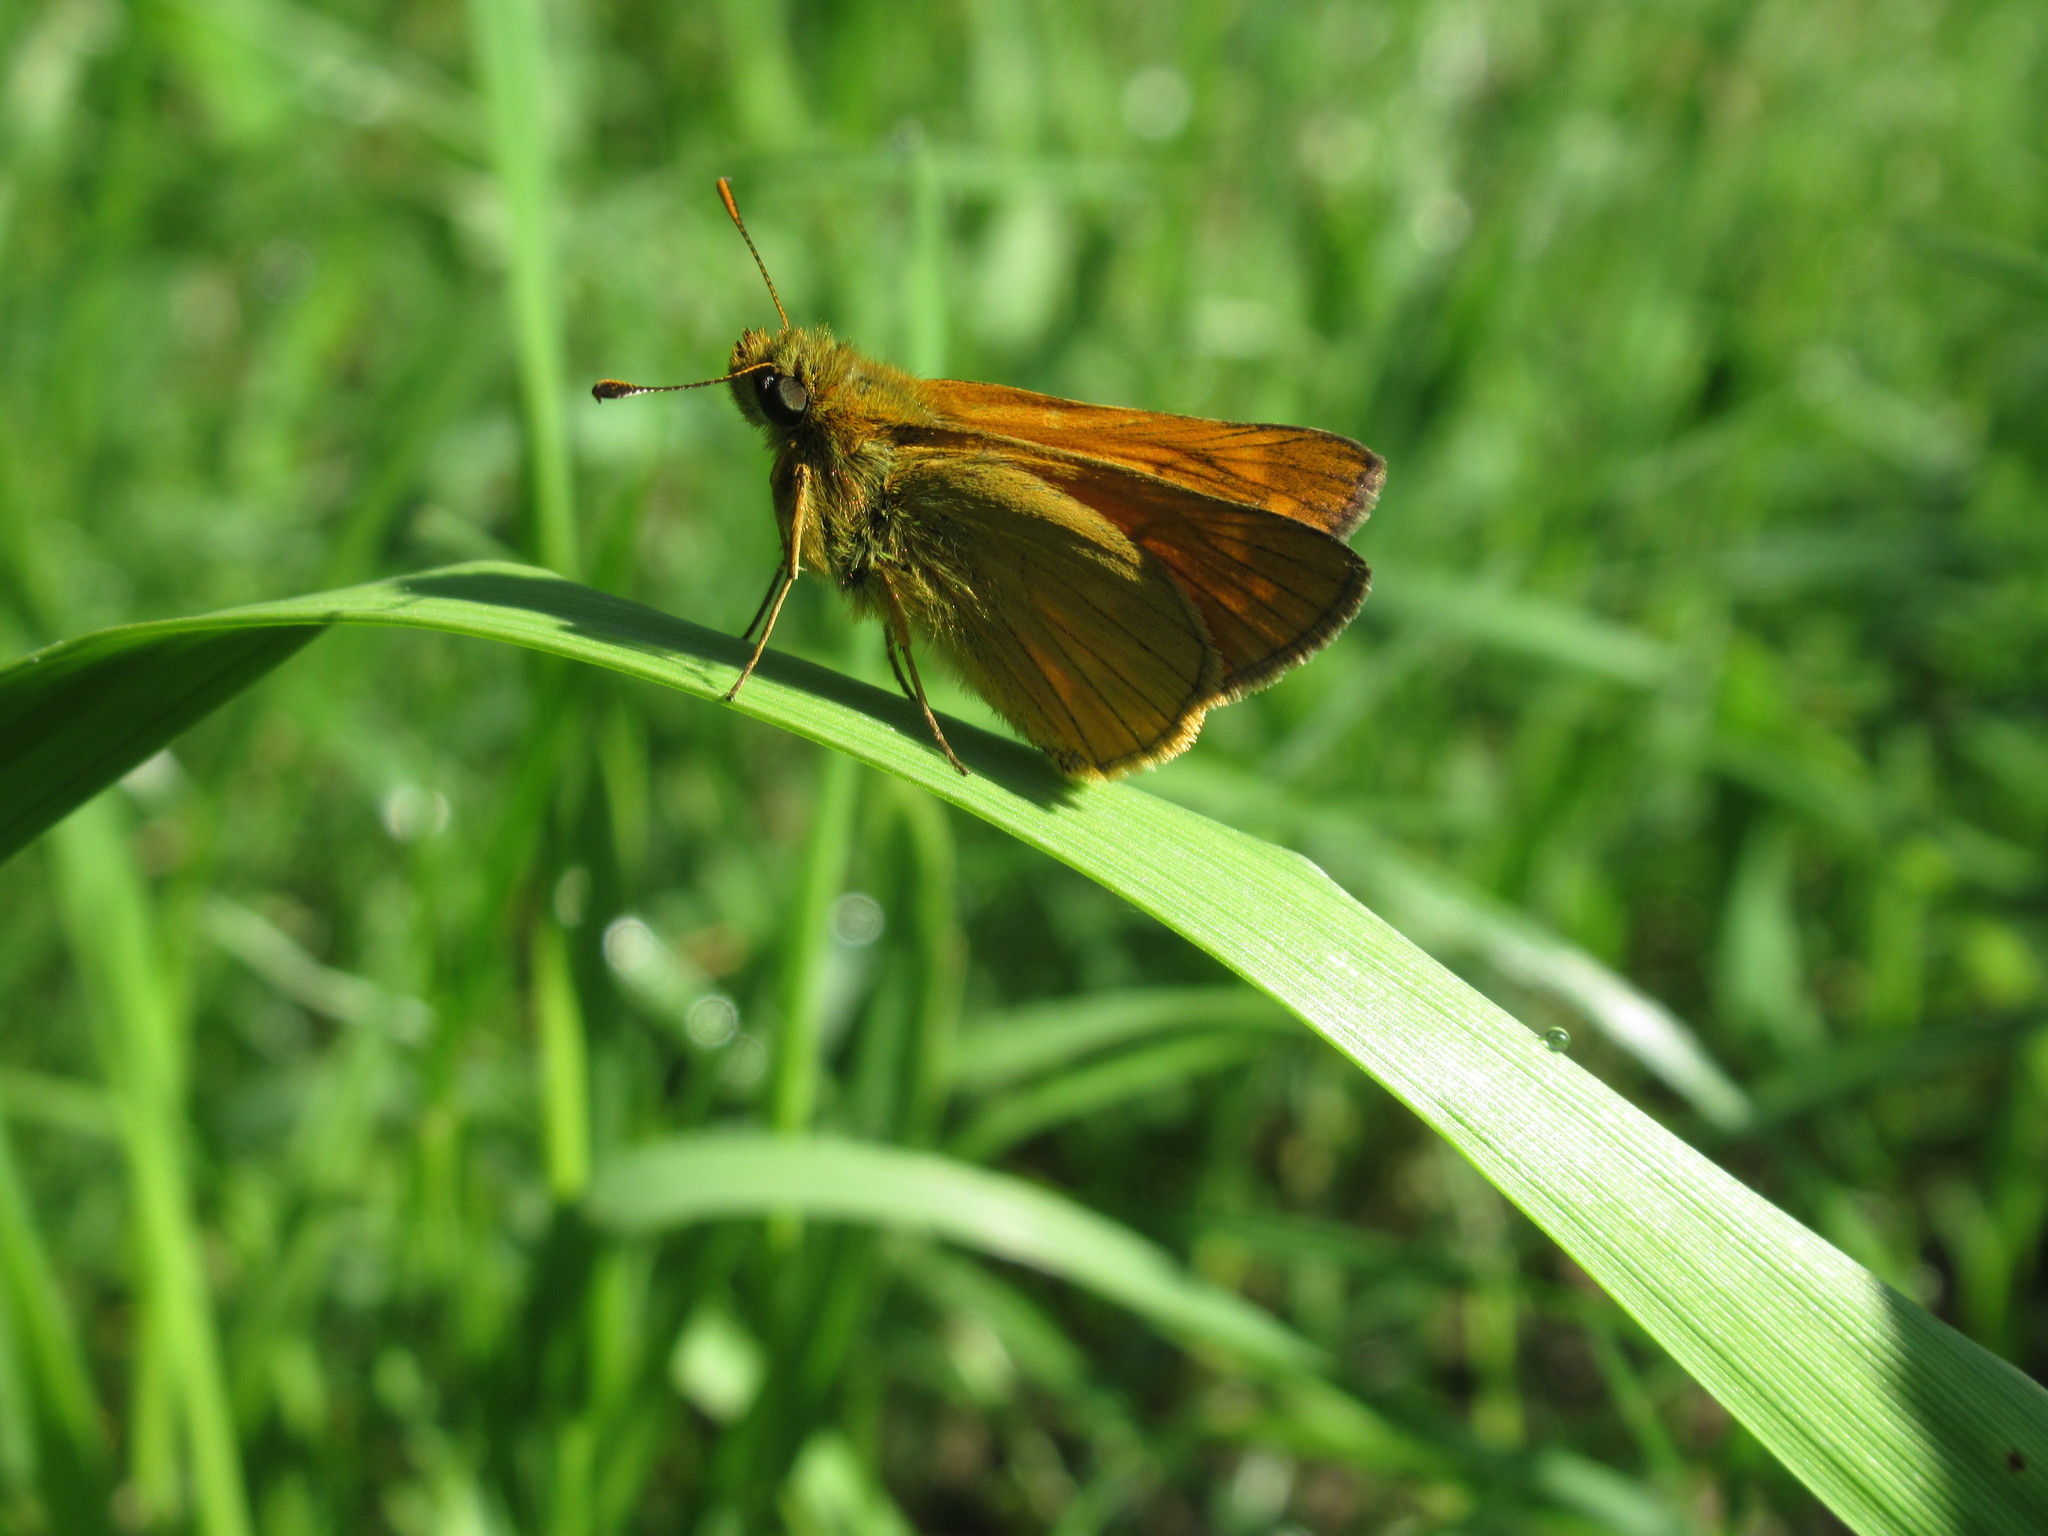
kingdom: Animalia
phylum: Arthropoda
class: Insecta
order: Lepidoptera
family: Hesperiidae
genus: Ochlodes
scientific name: Ochlodes venata
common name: Large skipper
